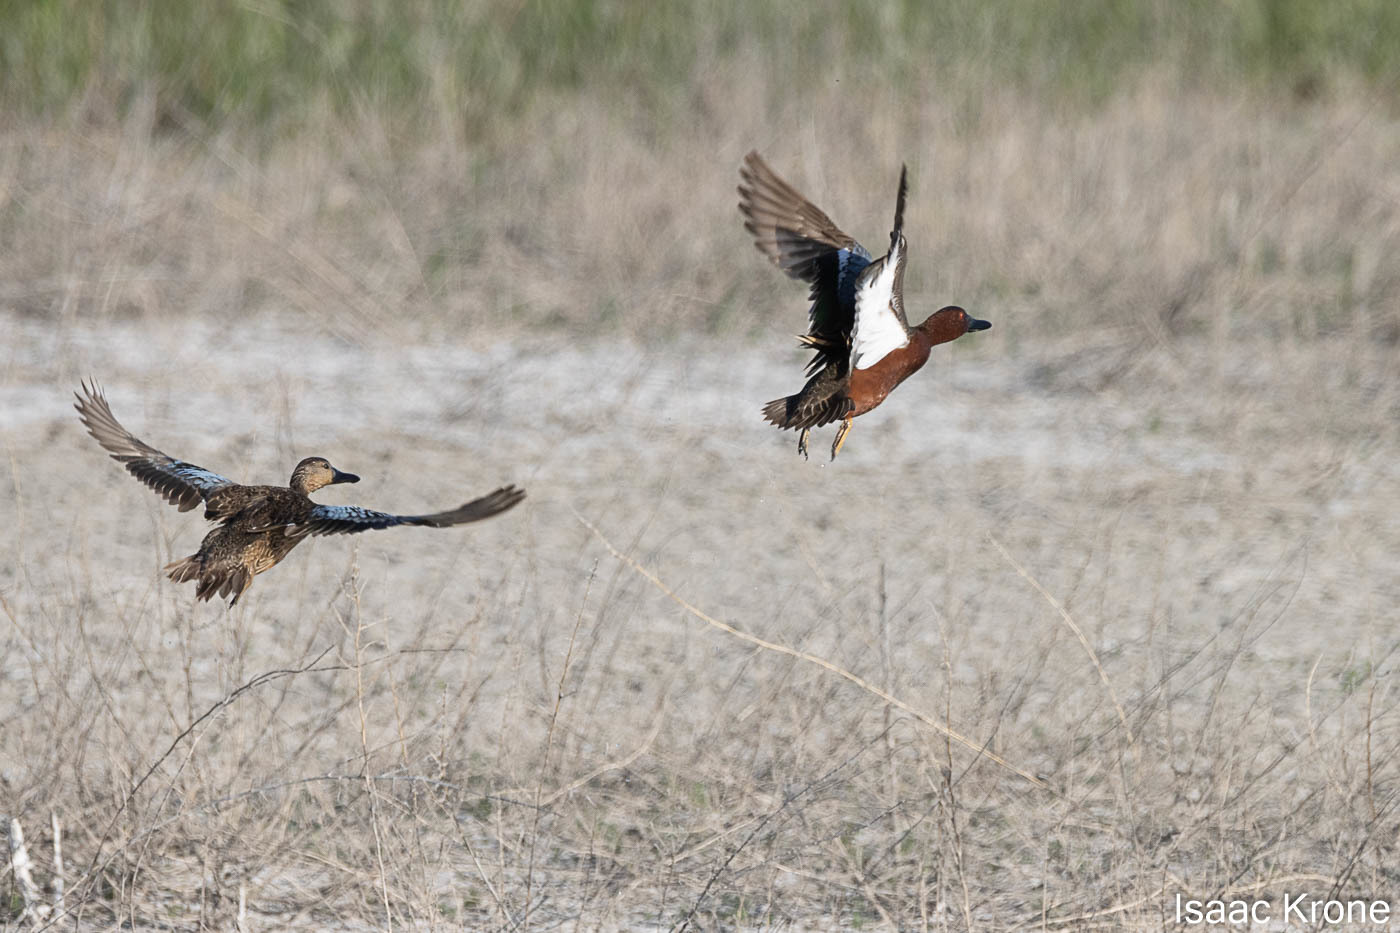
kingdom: Animalia
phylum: Chordata
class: Aves
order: Anseriformes
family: Anatidae
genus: Spatula
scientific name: Spatula cyanoptera
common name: Cinnamon teal
